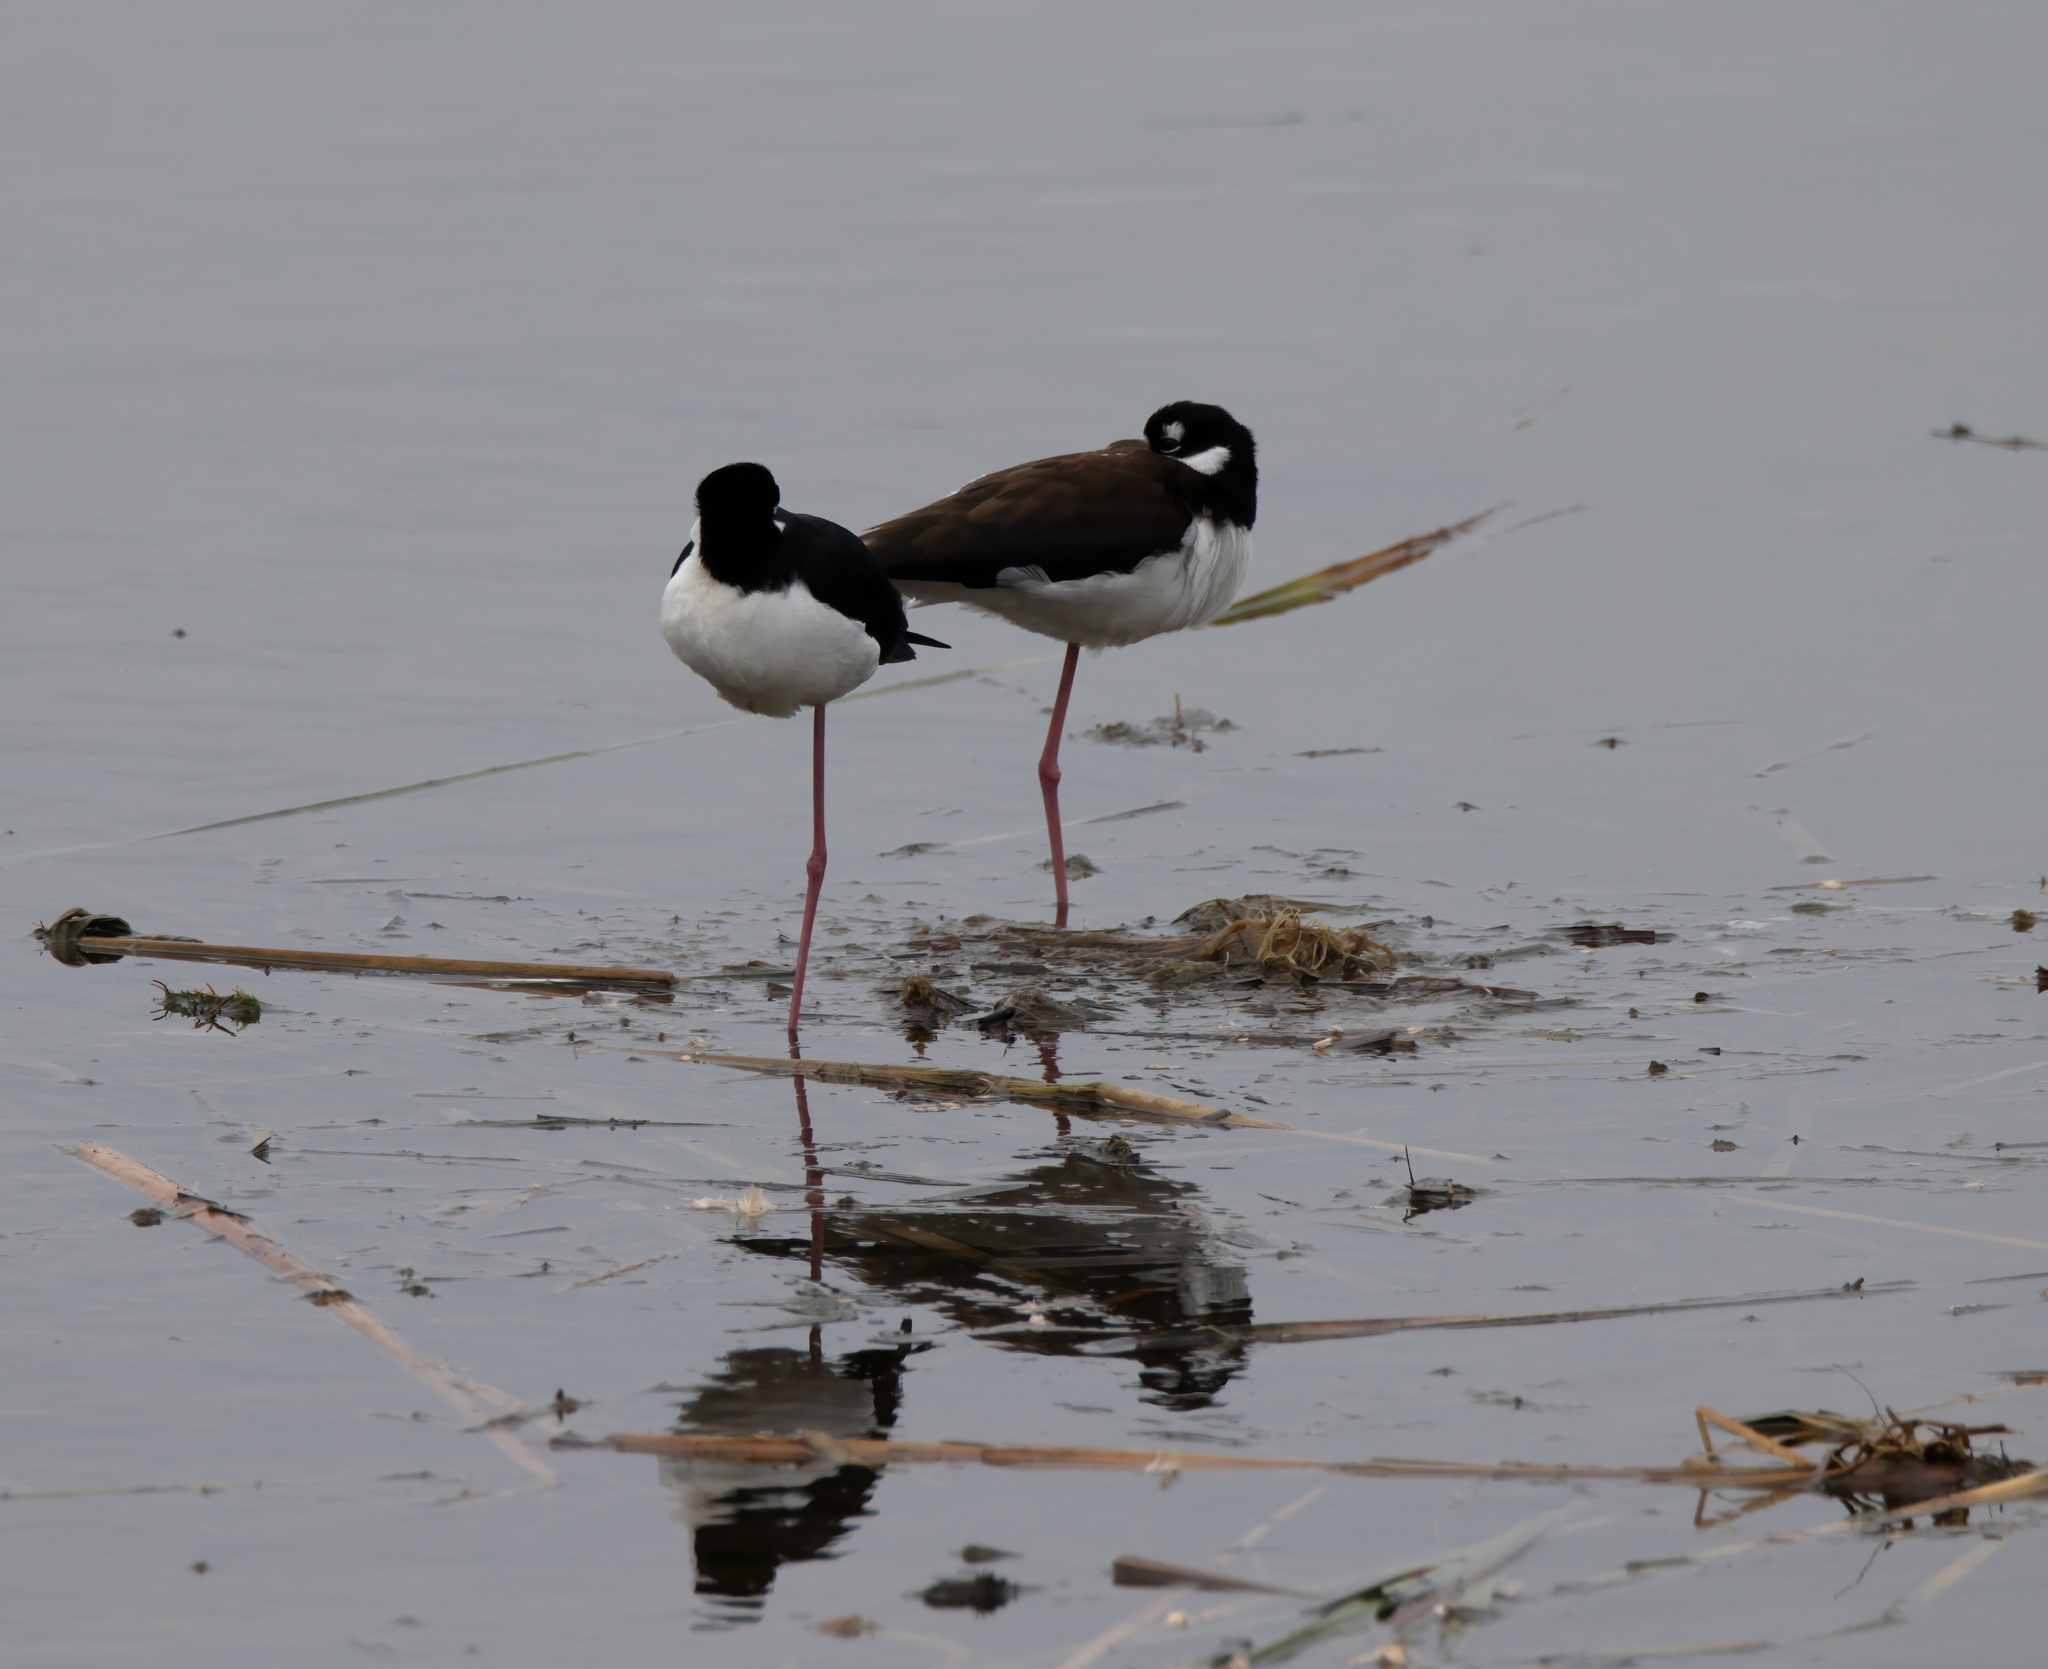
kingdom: Animalia
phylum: Chordata
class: Aves
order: Charadriiformes
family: Recurvirostridae
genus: Himantopus
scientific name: Himantopus mexicanus
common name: Black-necked stilt
